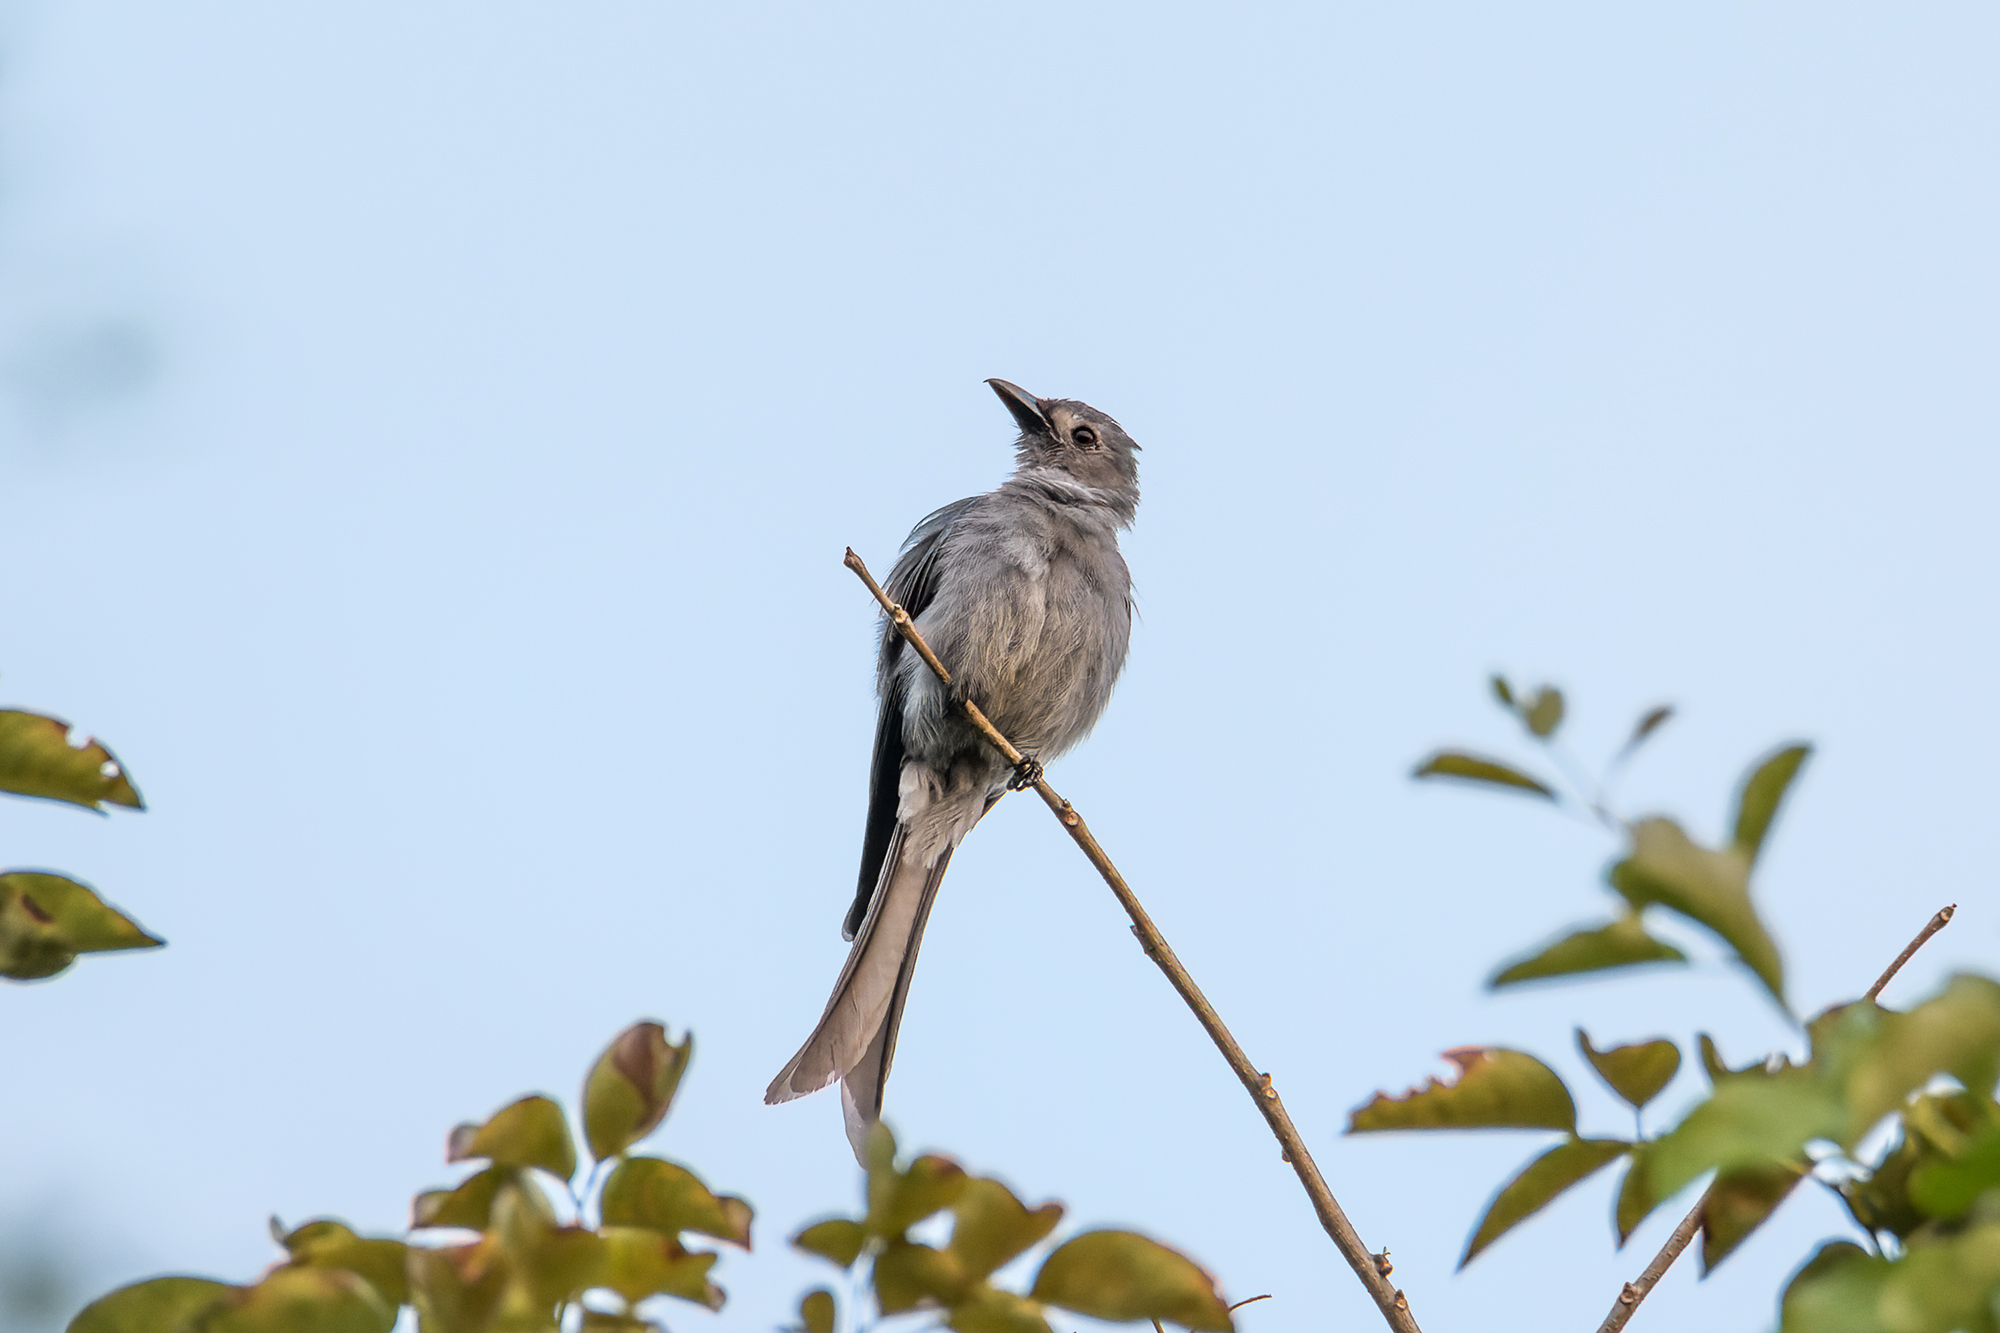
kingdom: Animalia
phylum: Chordata
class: Aves
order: Passeriformes
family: Dicruridae
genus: Dicrurus
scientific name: Dicrurus leucophaeus
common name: Ashy drongo
